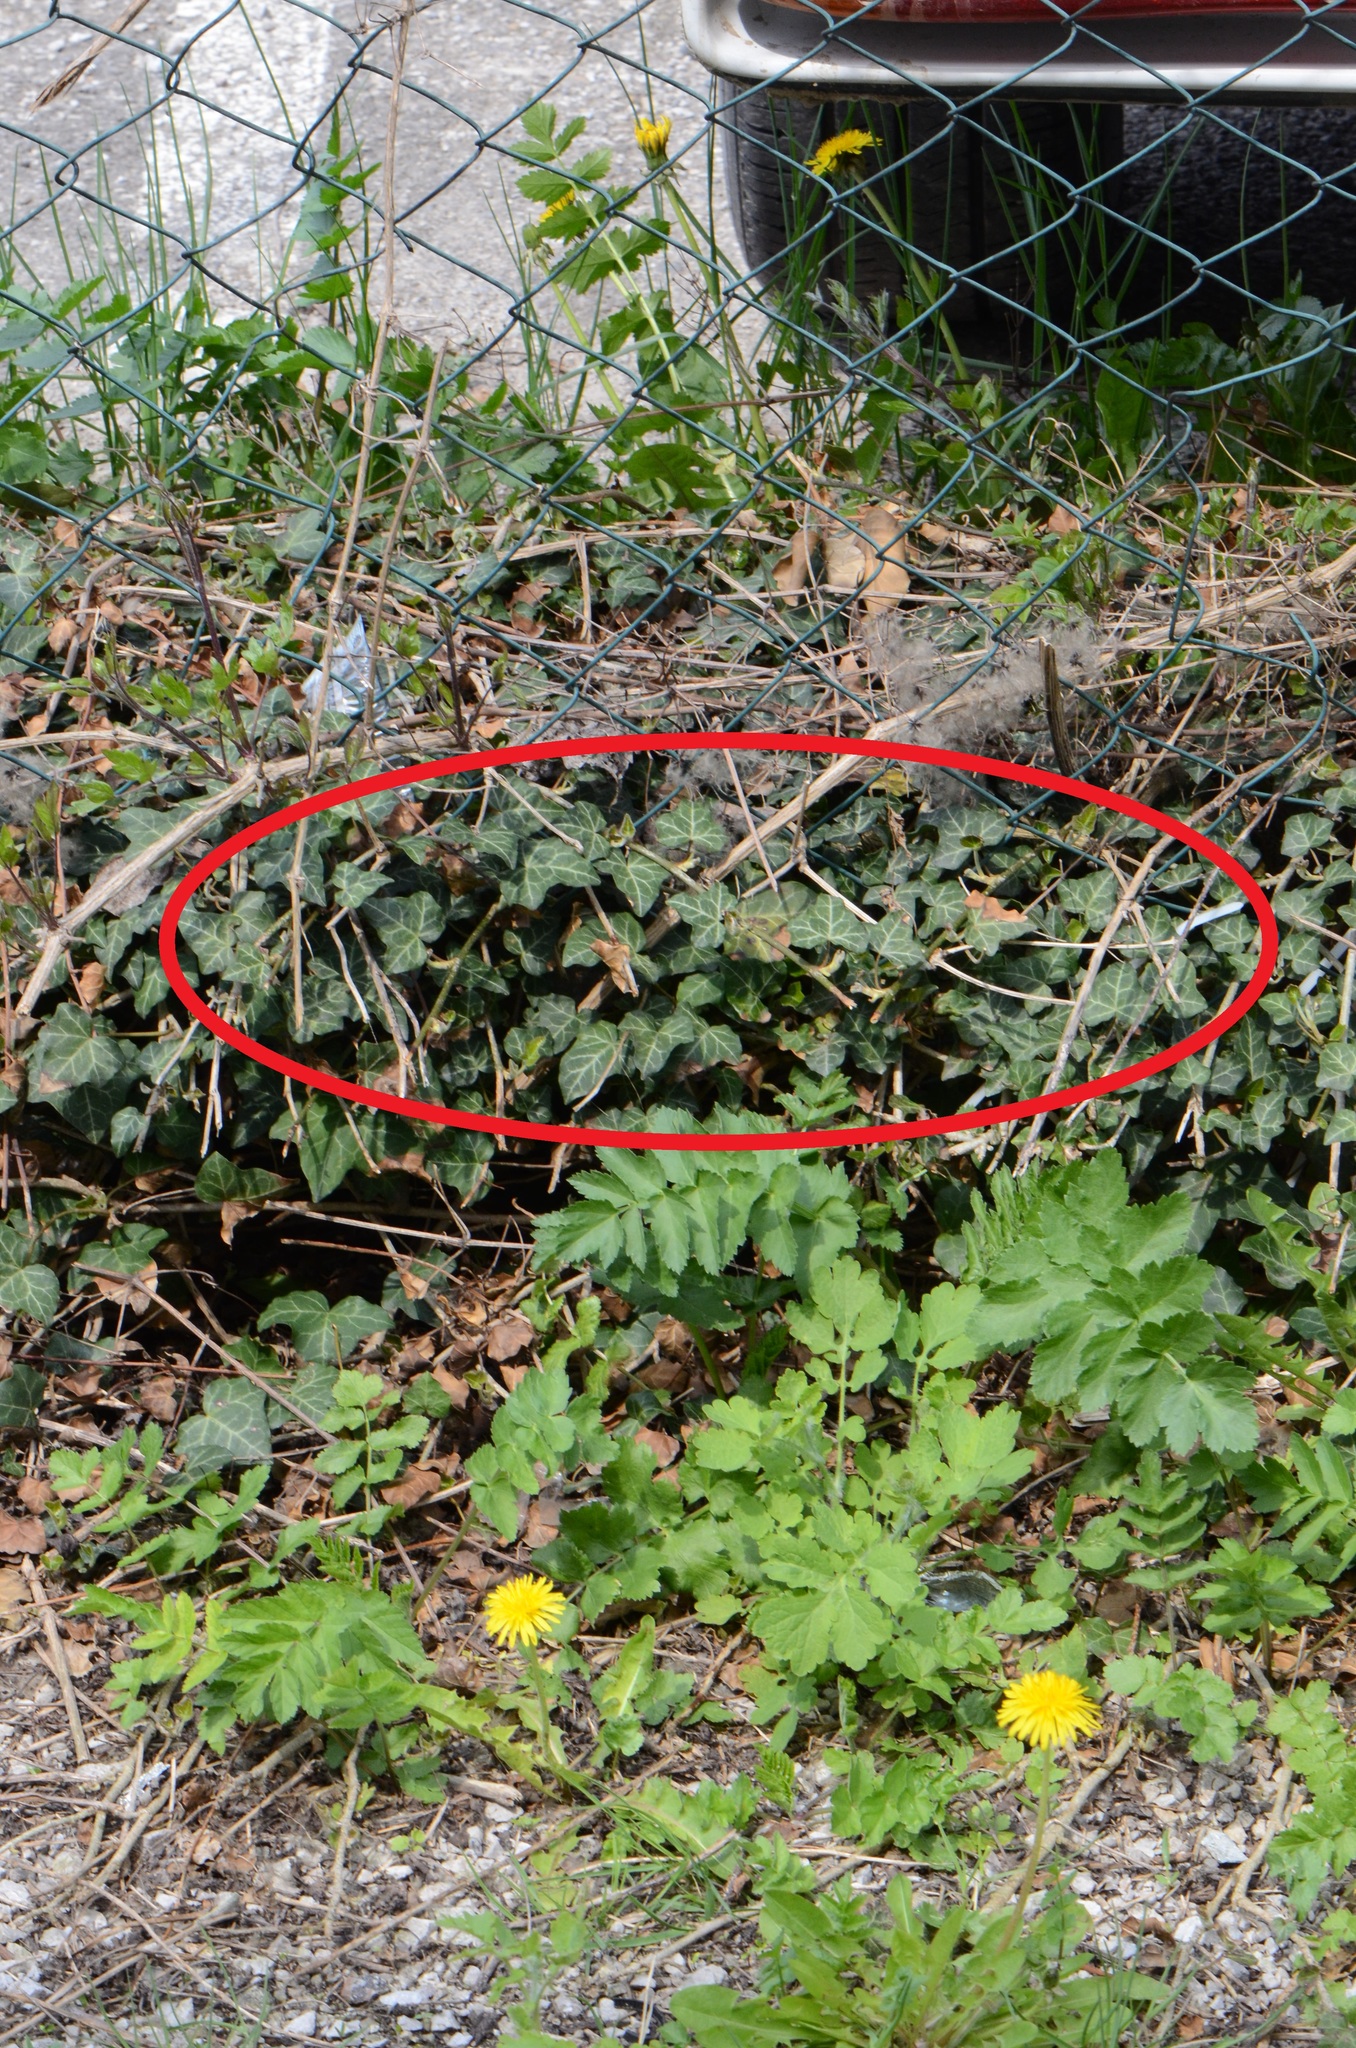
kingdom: Plantae
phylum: Tracheophyta
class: Magnoliopsida
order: Apiales
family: Araliaceae
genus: Hedera
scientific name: Hedera helix
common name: Ivy
